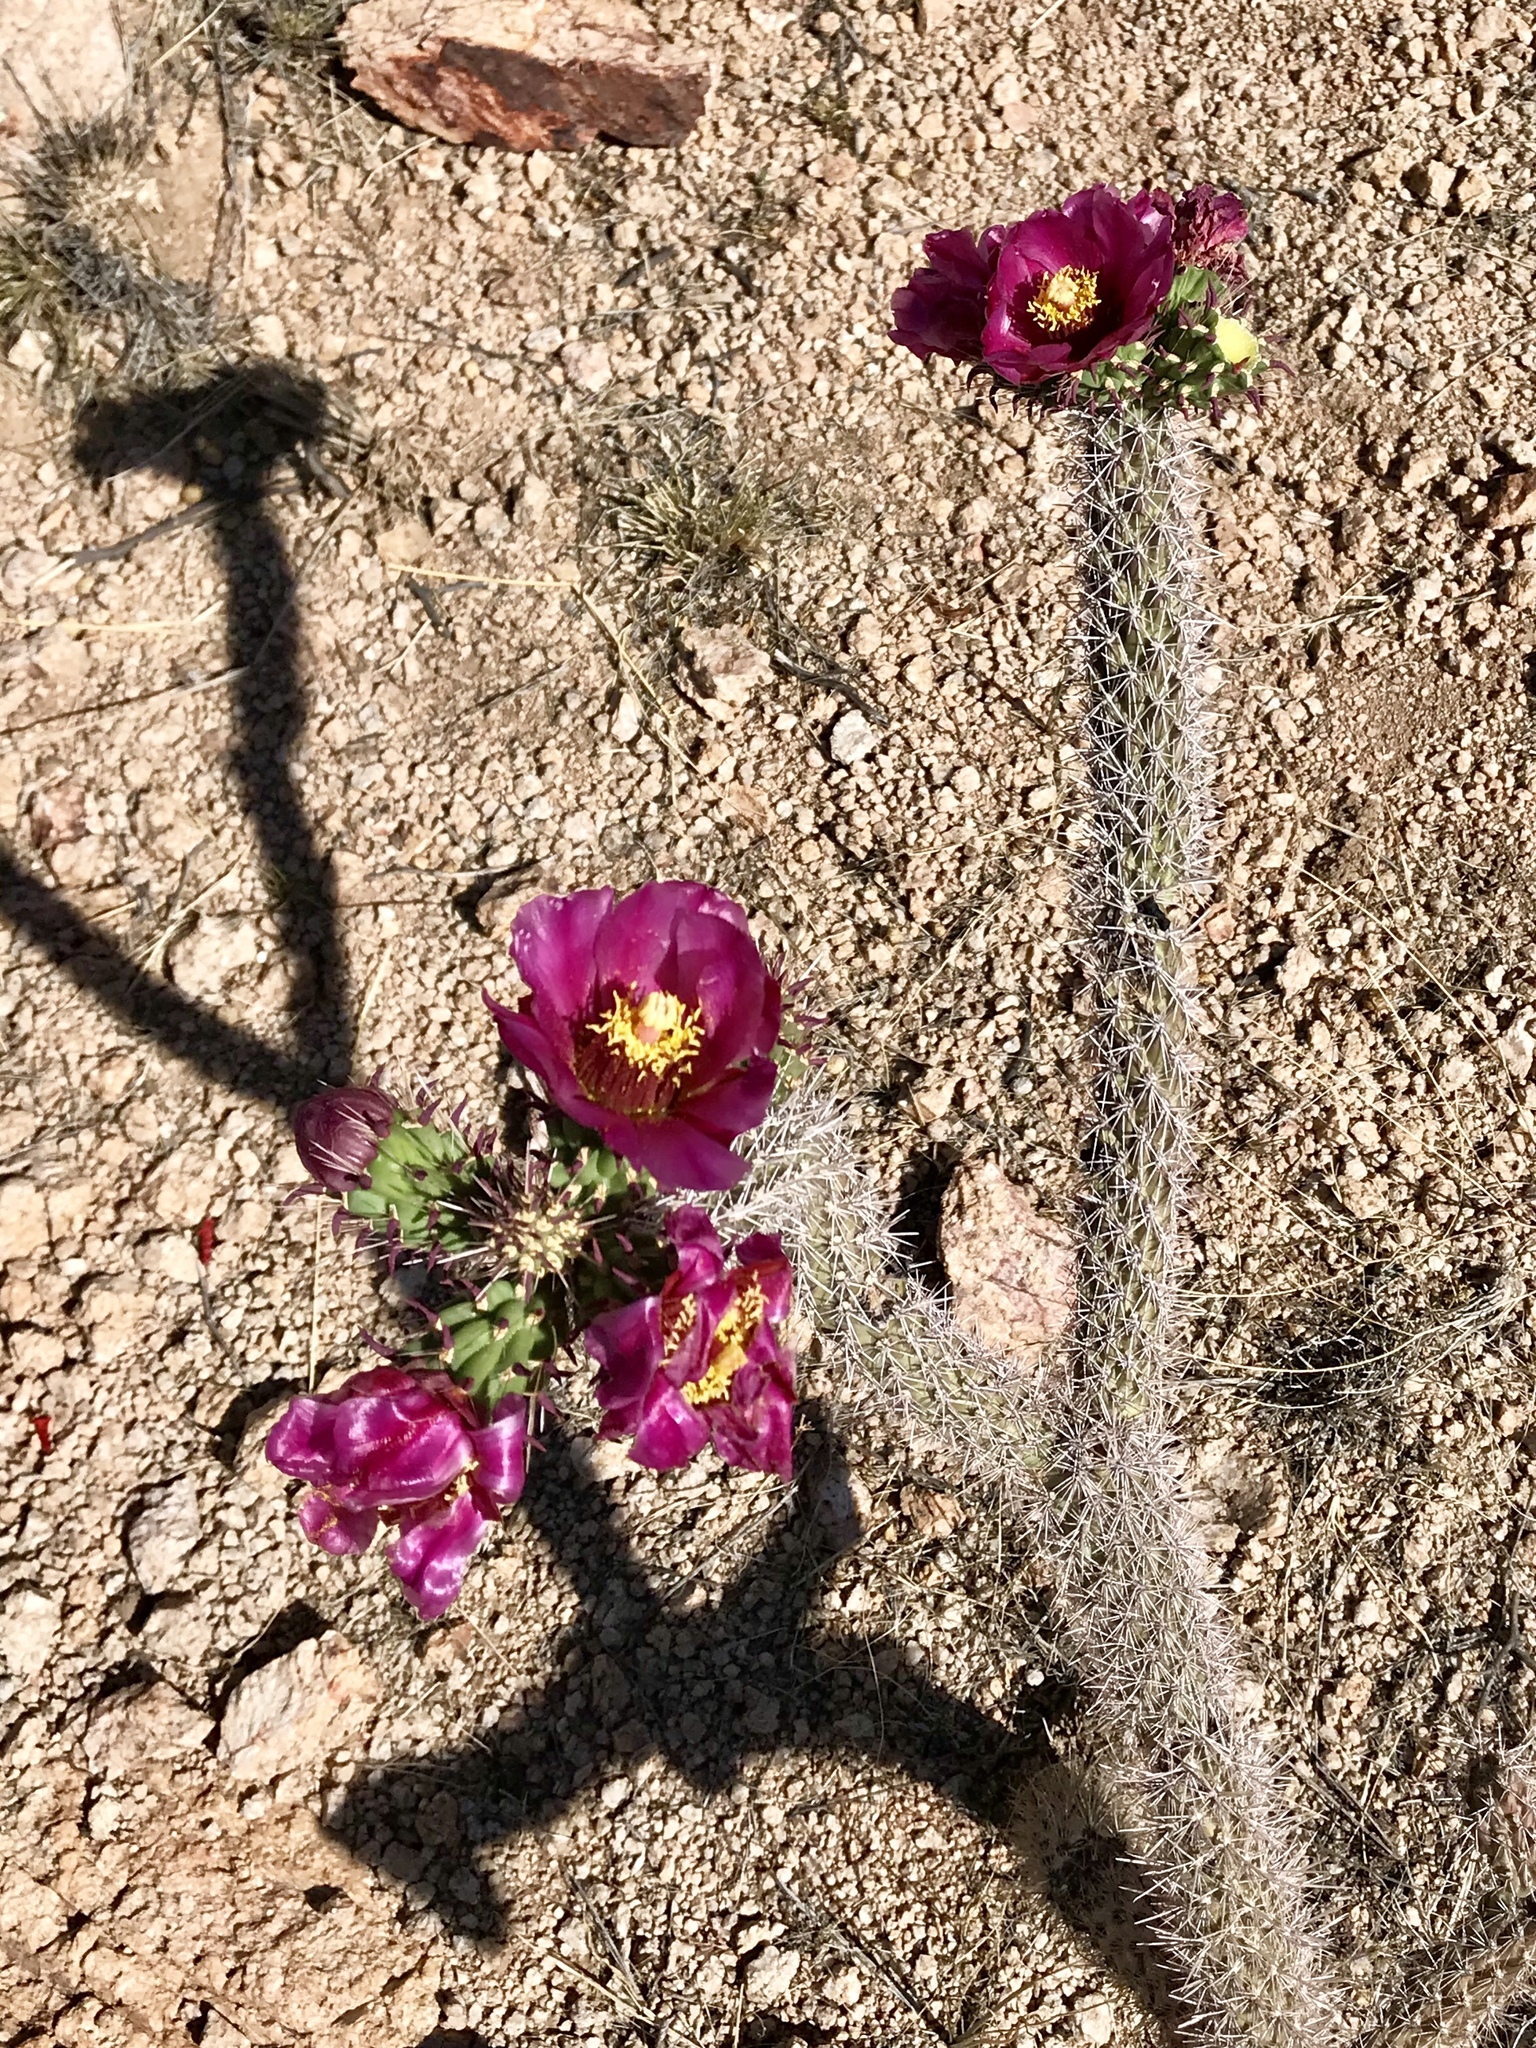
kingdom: Plantae
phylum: Tracheophyta
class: Magnoliopsida
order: Caryophyllales
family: Cactaceae
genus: Cylindropuntia
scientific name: Cylindropuntia imbricata
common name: Candelabrum cactus
